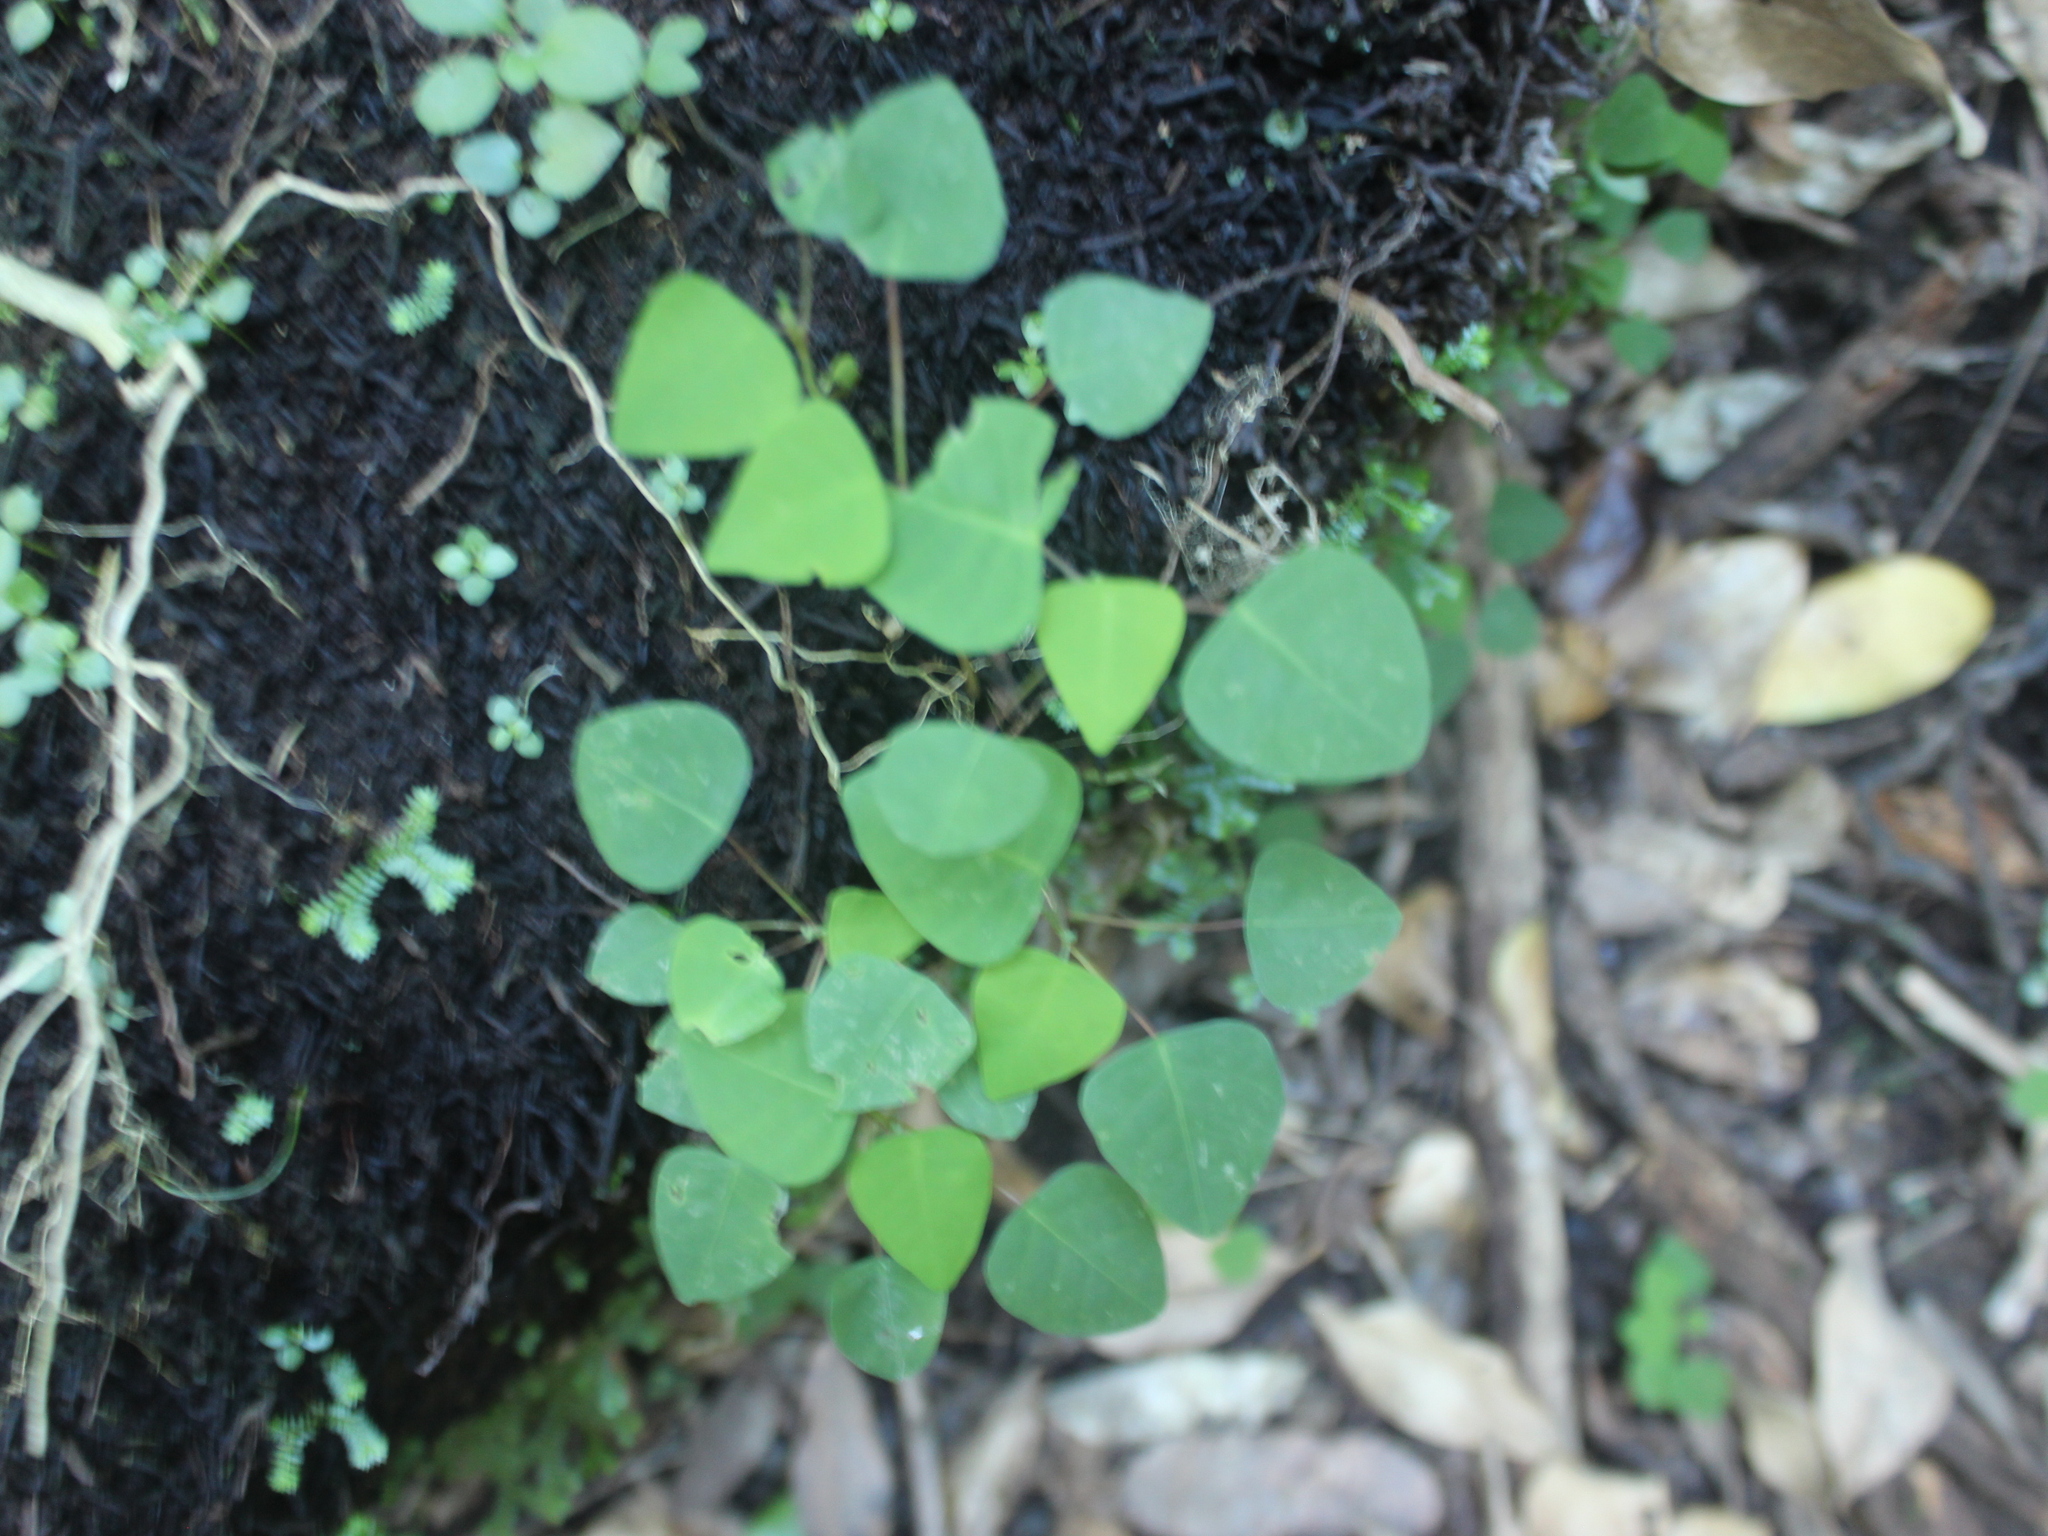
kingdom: Plantae
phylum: Tracheophyta
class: Magnoliopsida
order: Malpighiales
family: Euphorbiaceae
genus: Homalanthus
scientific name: Homalanthus populifolius
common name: Queensland poplar
